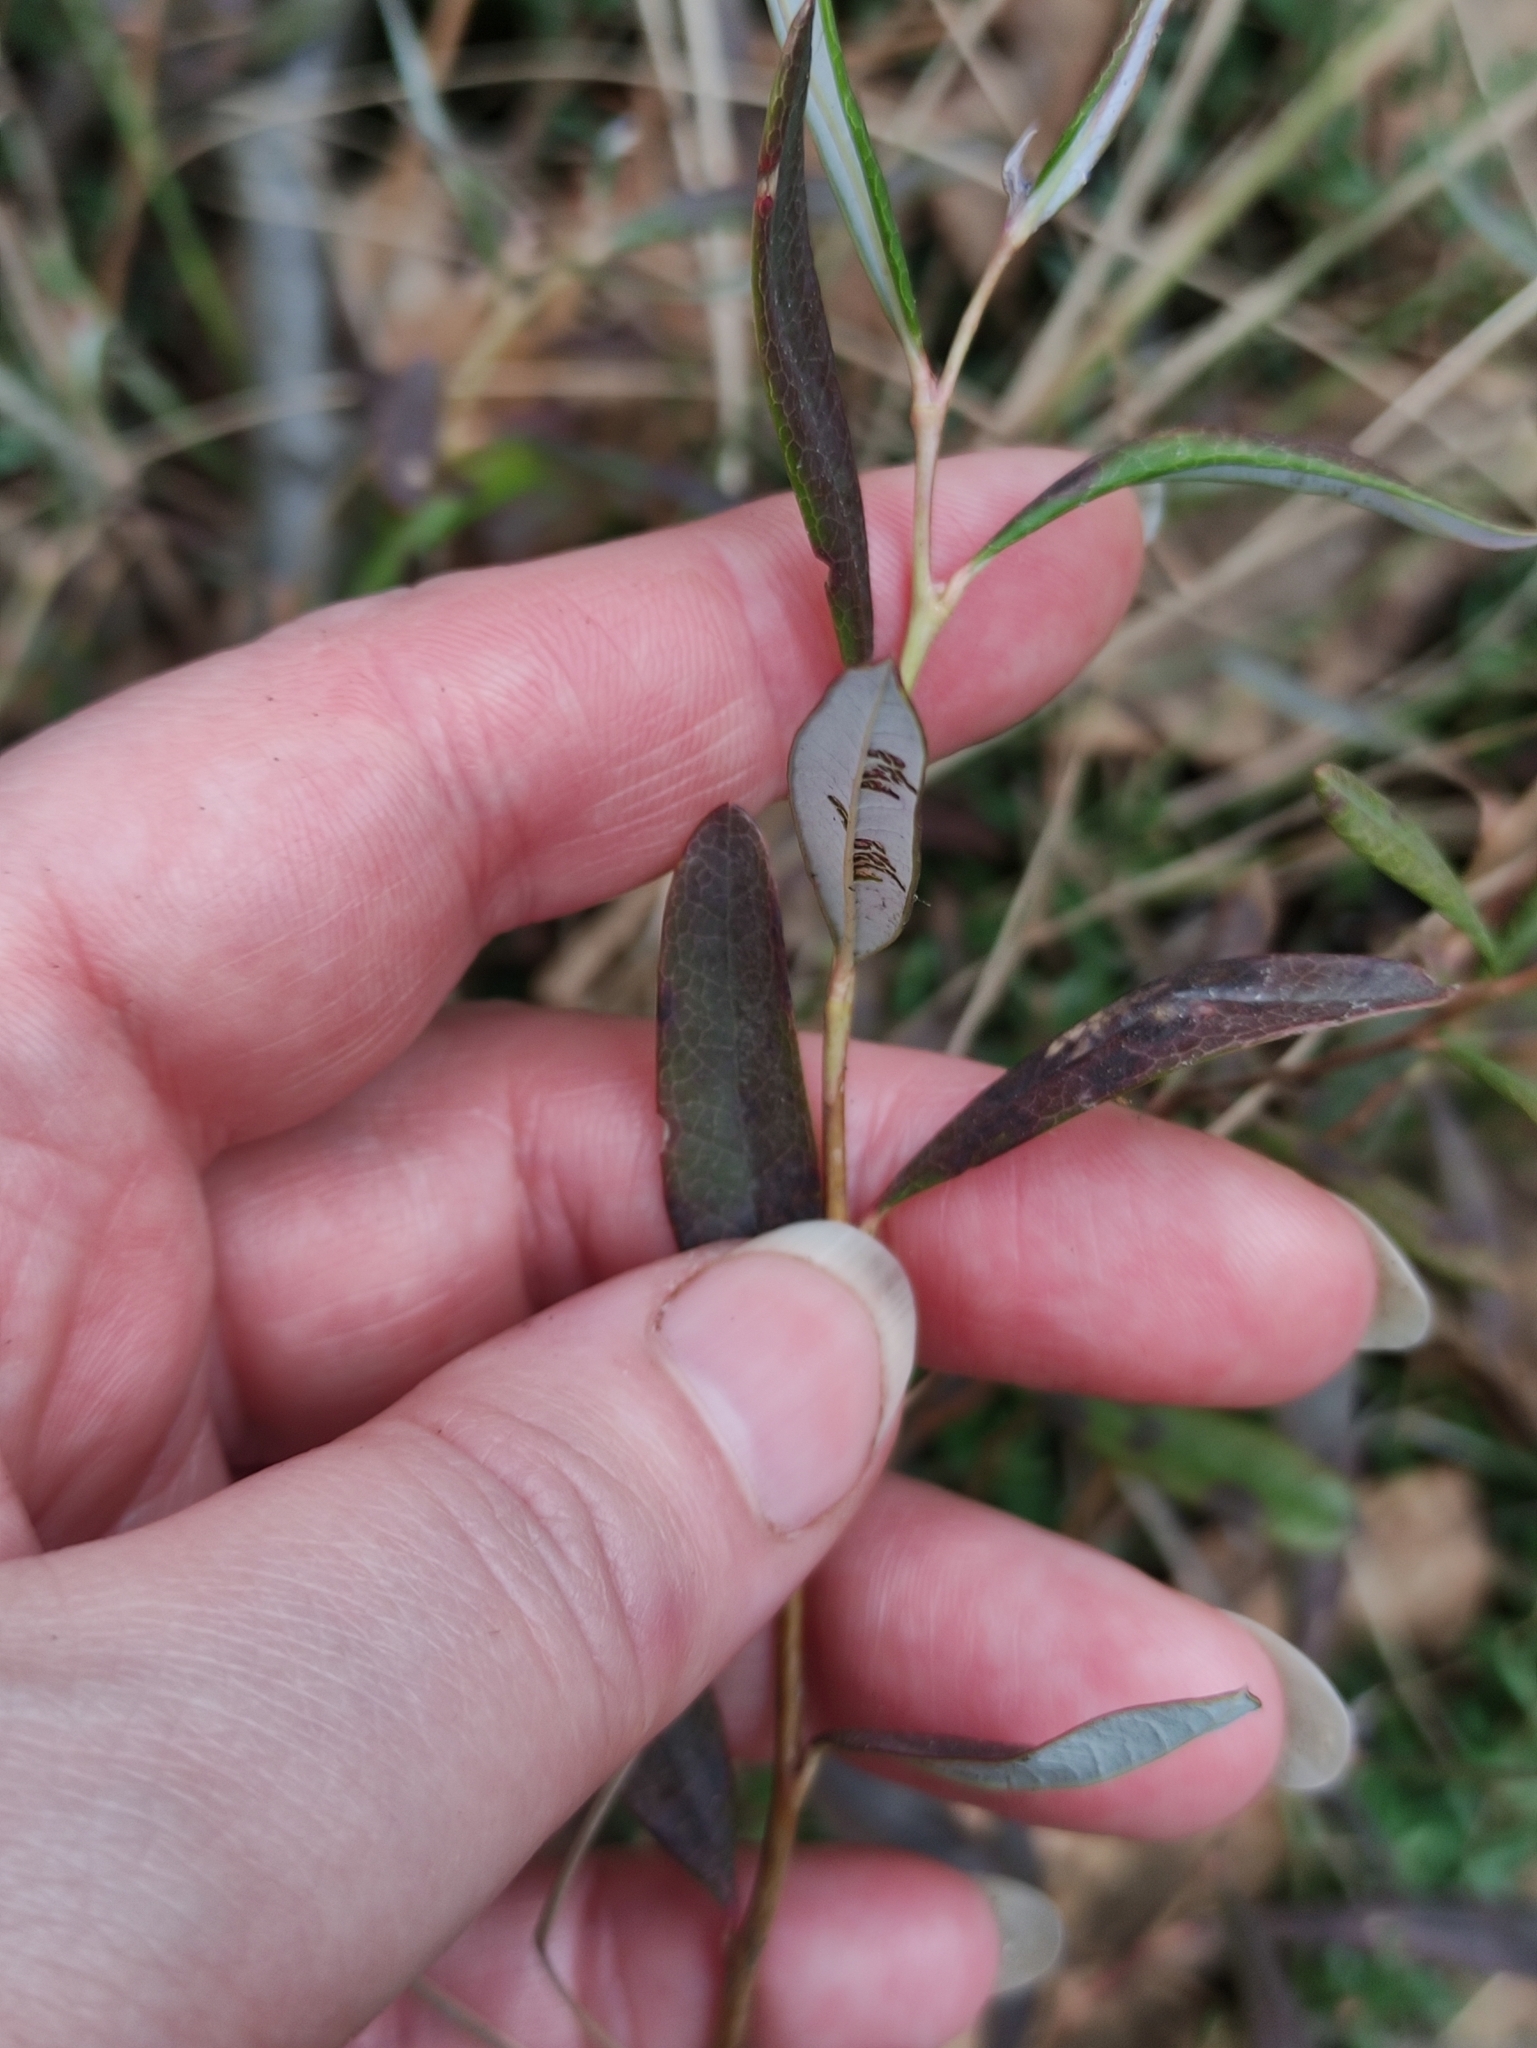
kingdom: Plantae
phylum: Tracheophyta
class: Magnoliopsida
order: Ericales
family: Ericaceae
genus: Andromeda
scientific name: Andromeda polifolia
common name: Bog-rosemary
